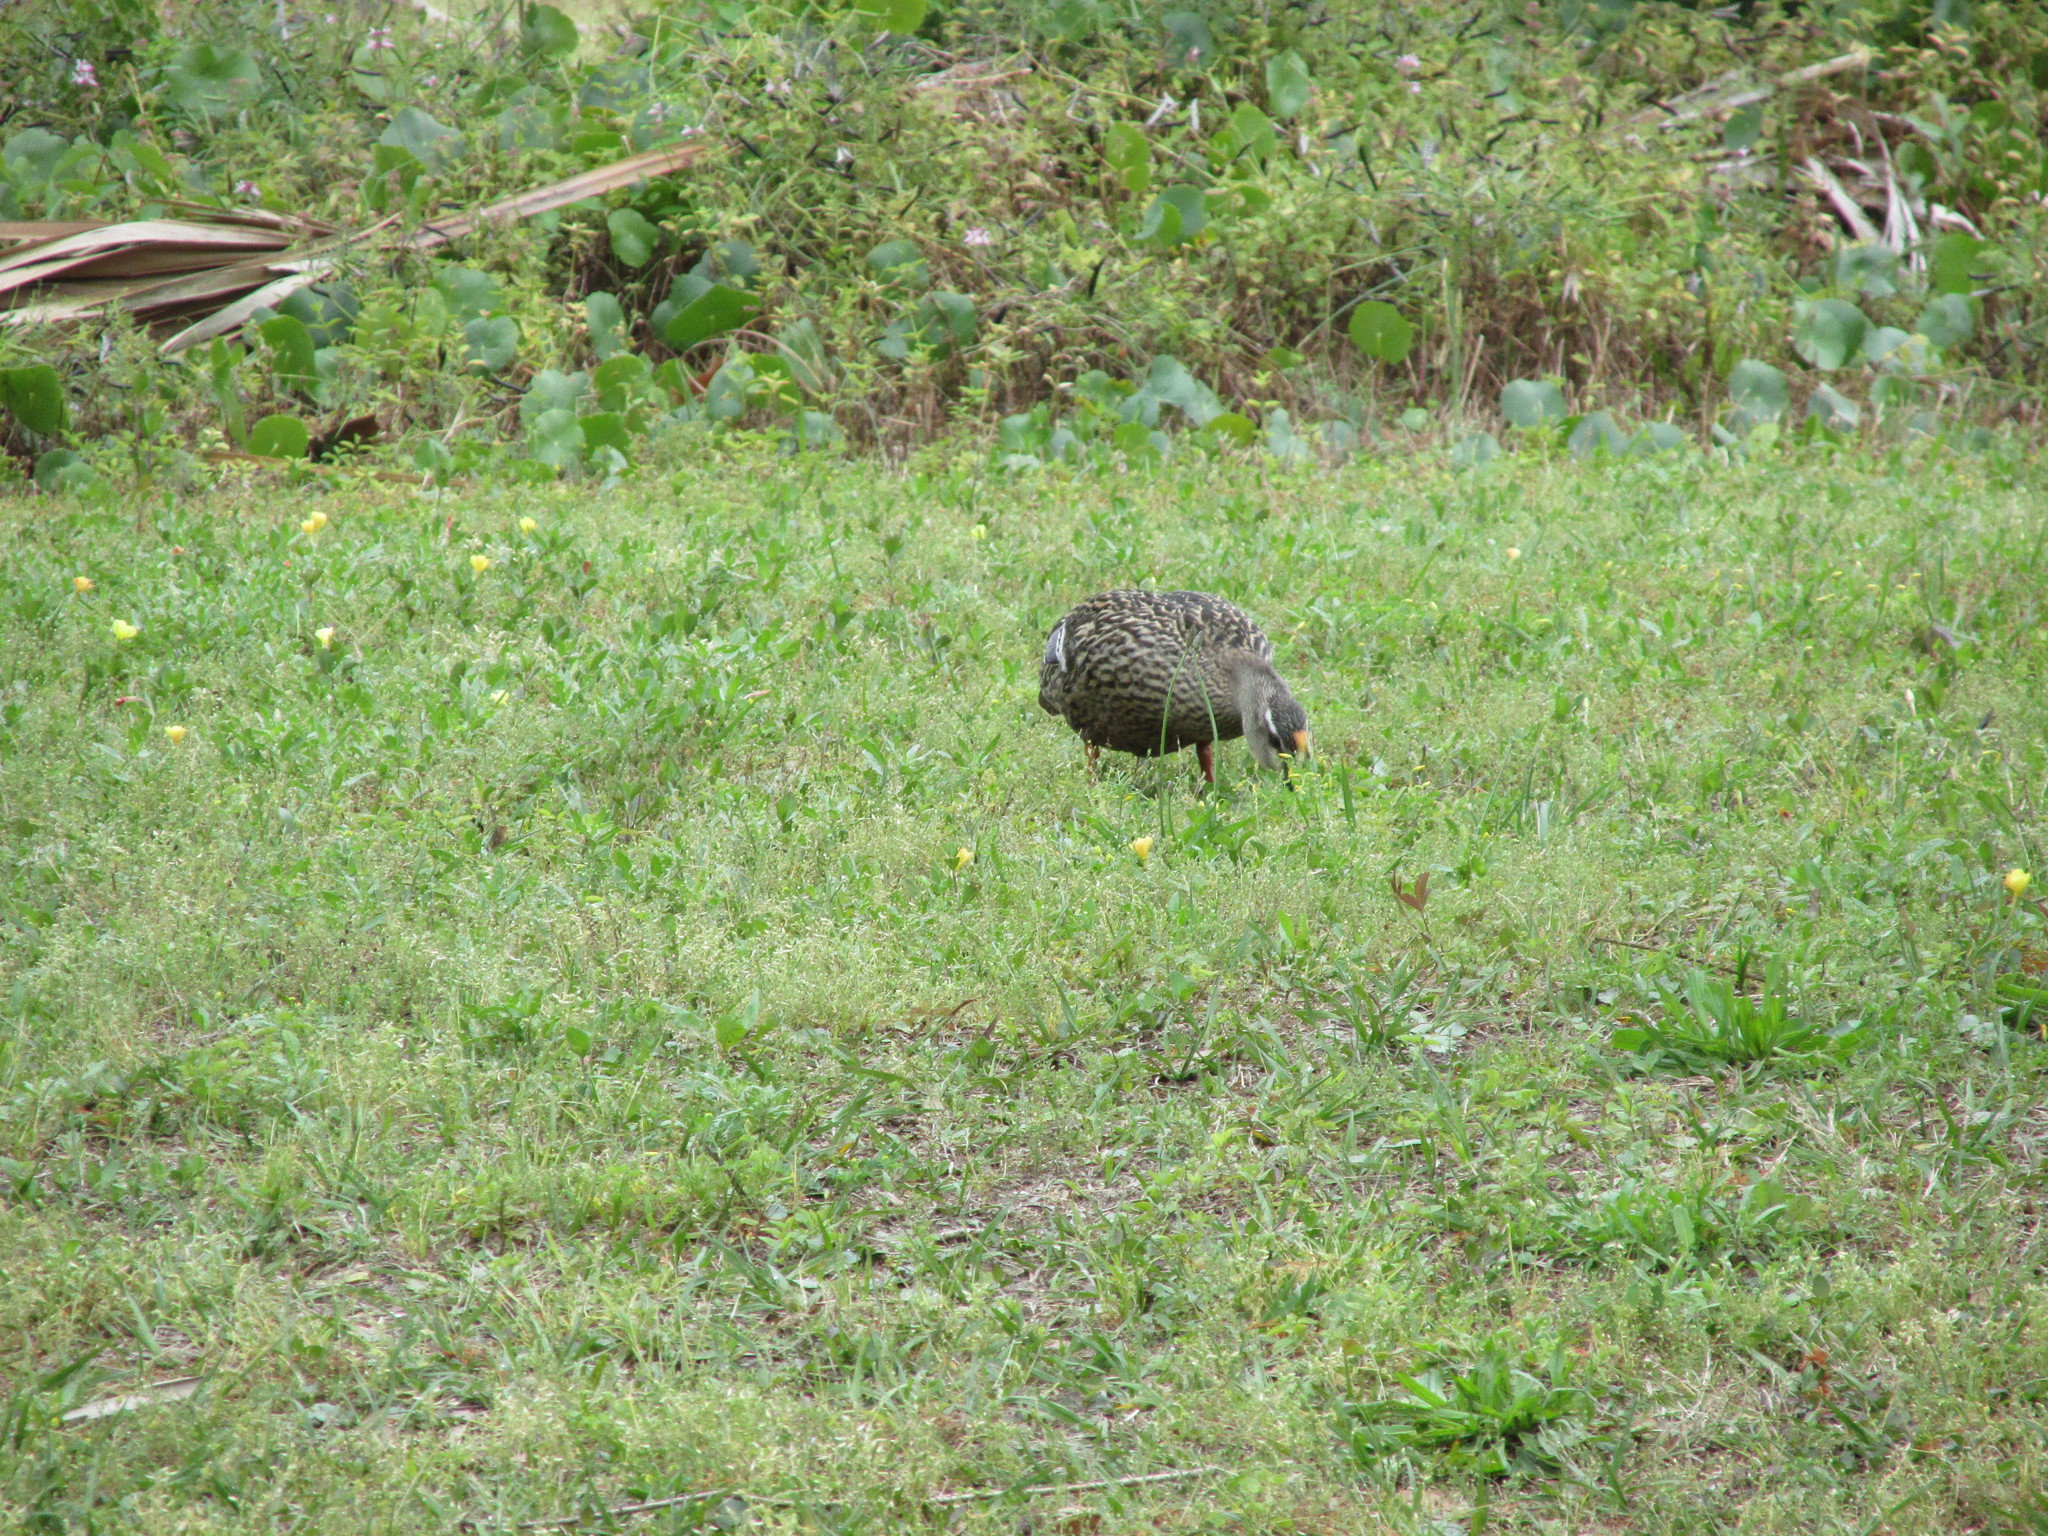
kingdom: Animalia
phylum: Chordata
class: Aves
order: Anseriformes
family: Anatidae
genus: Anas
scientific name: Anas platyrhynchos
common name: Mallard
